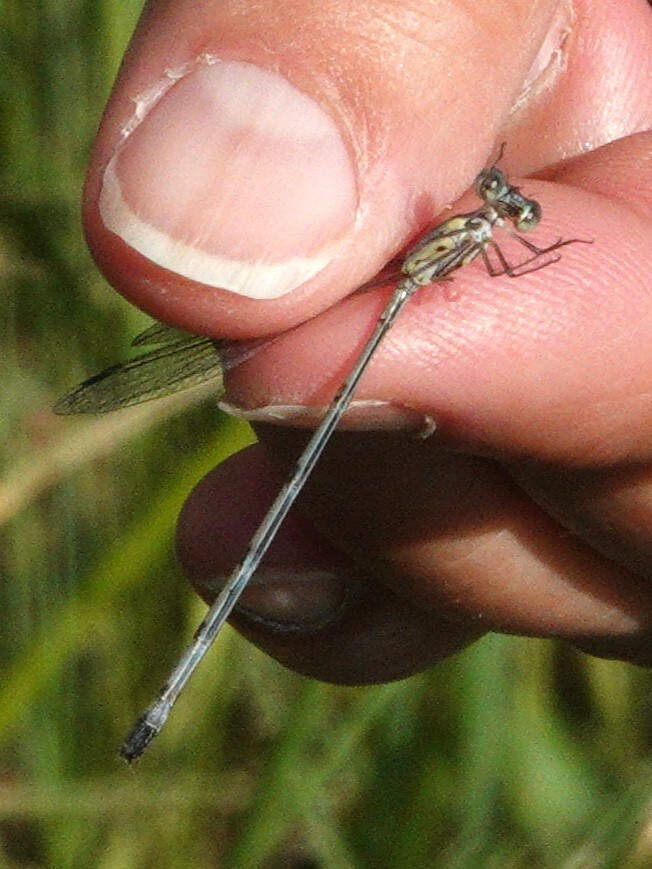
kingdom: Animalia
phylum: Arthropoda
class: Insecta
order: Odonata
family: Lestidae
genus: Lestes
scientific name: Lestes tenuatus
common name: Blue-striped spreadwing
